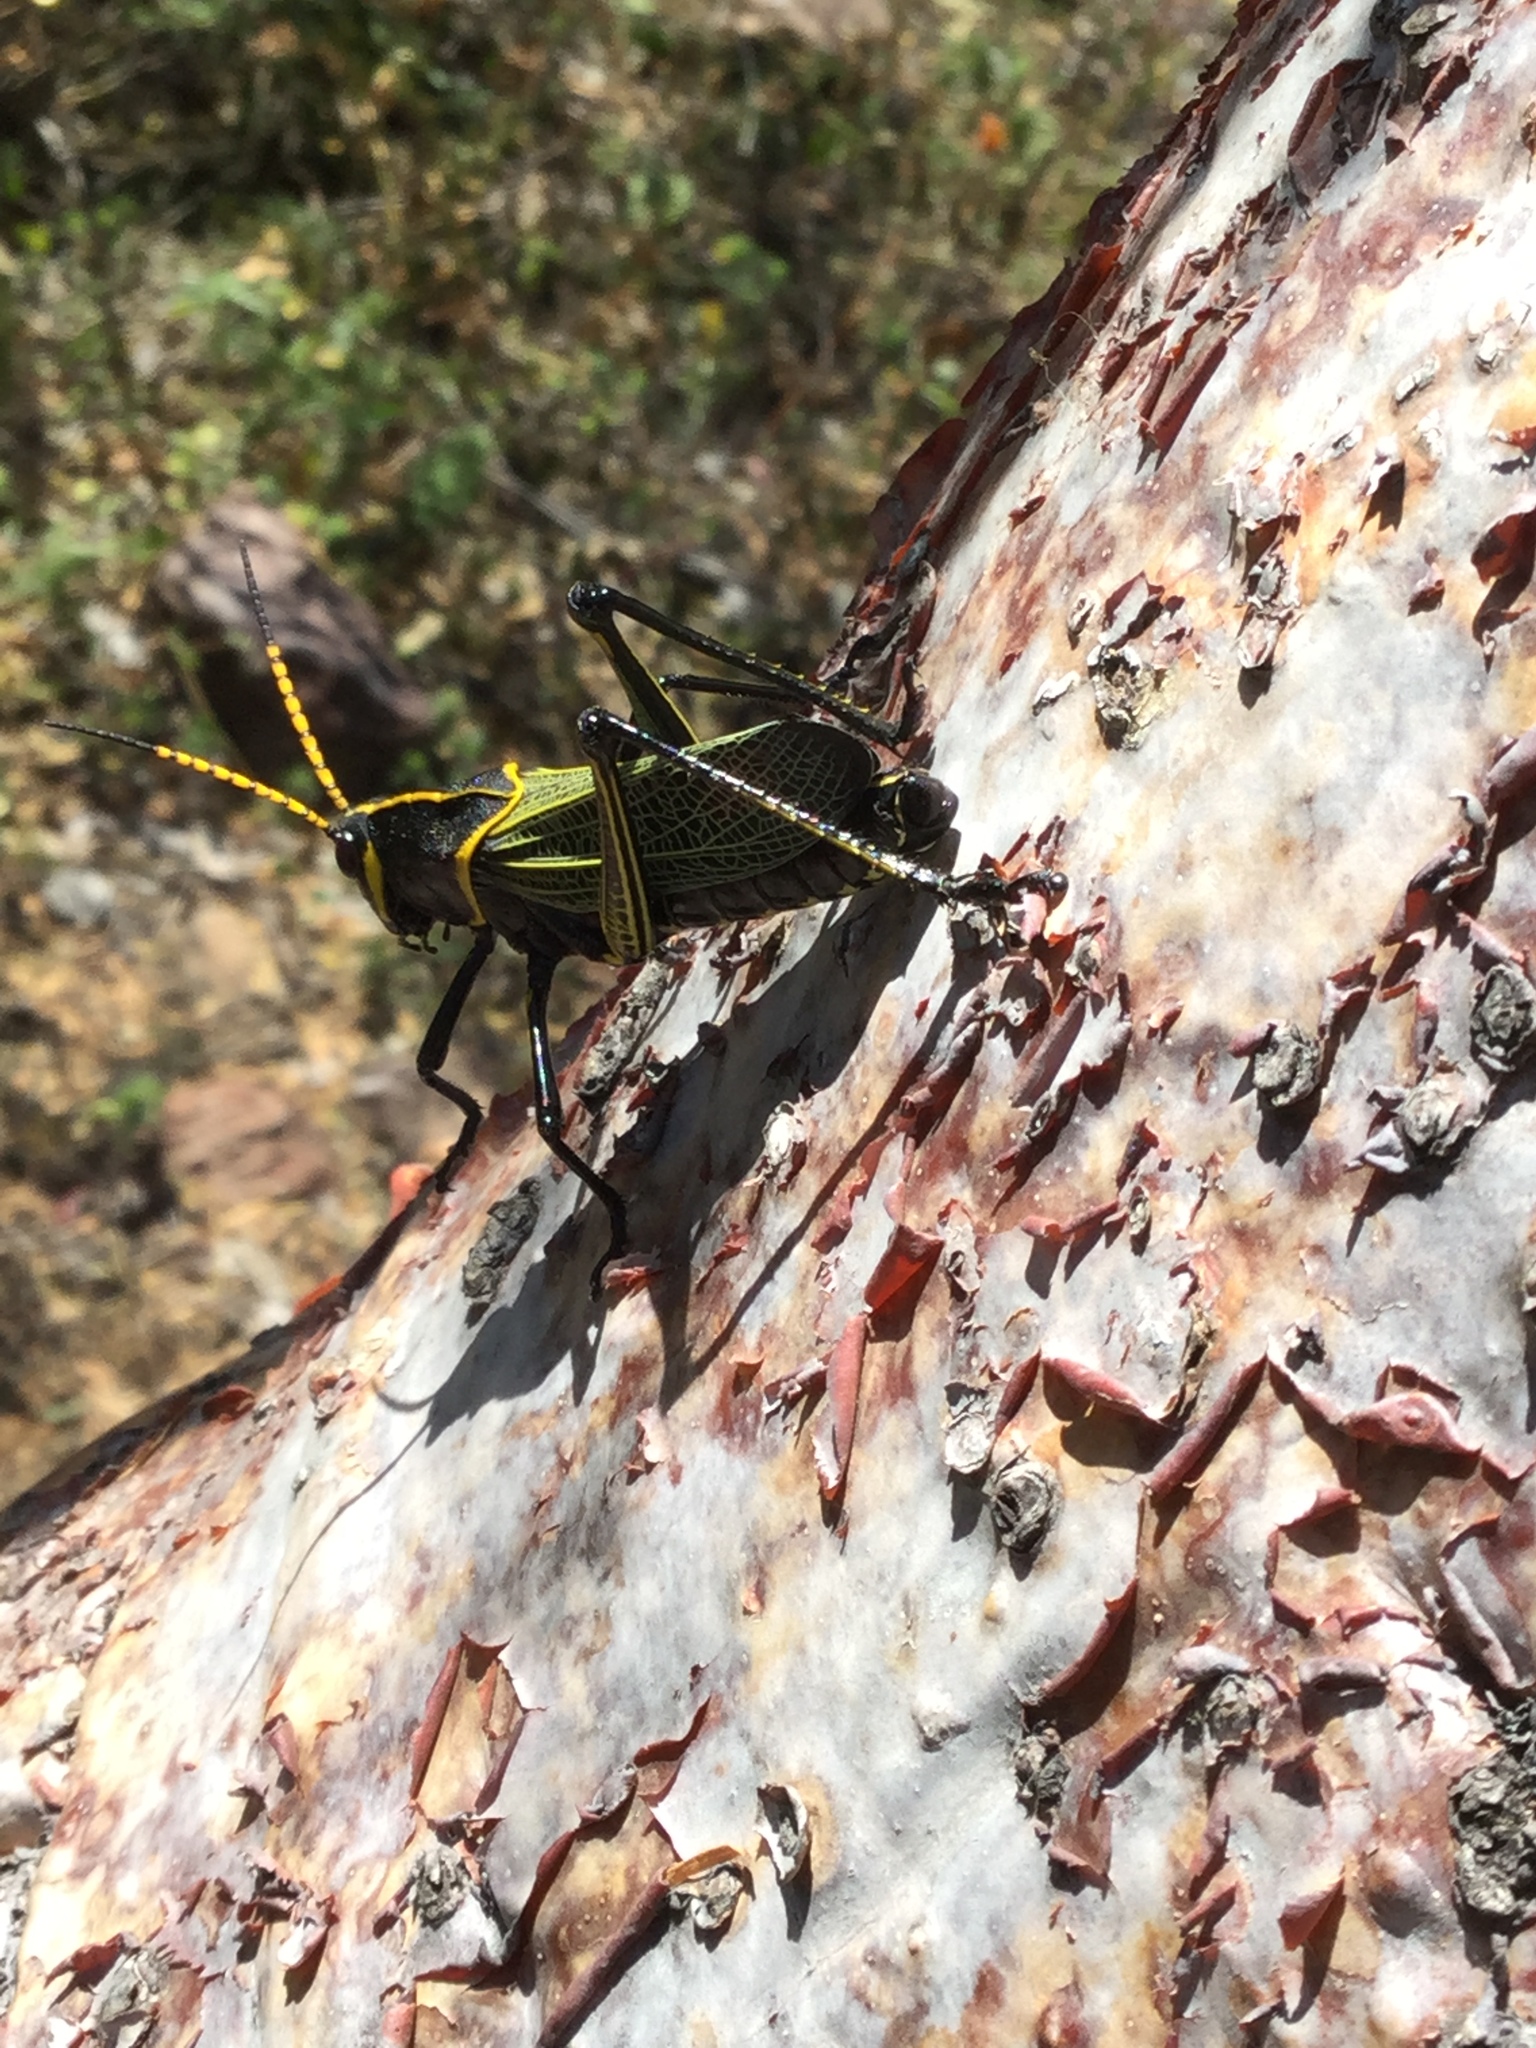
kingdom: Animalia
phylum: Arthropoda
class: Insecta
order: Orthoptera
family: Romaleidae
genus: Romalea
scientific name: Romalea
